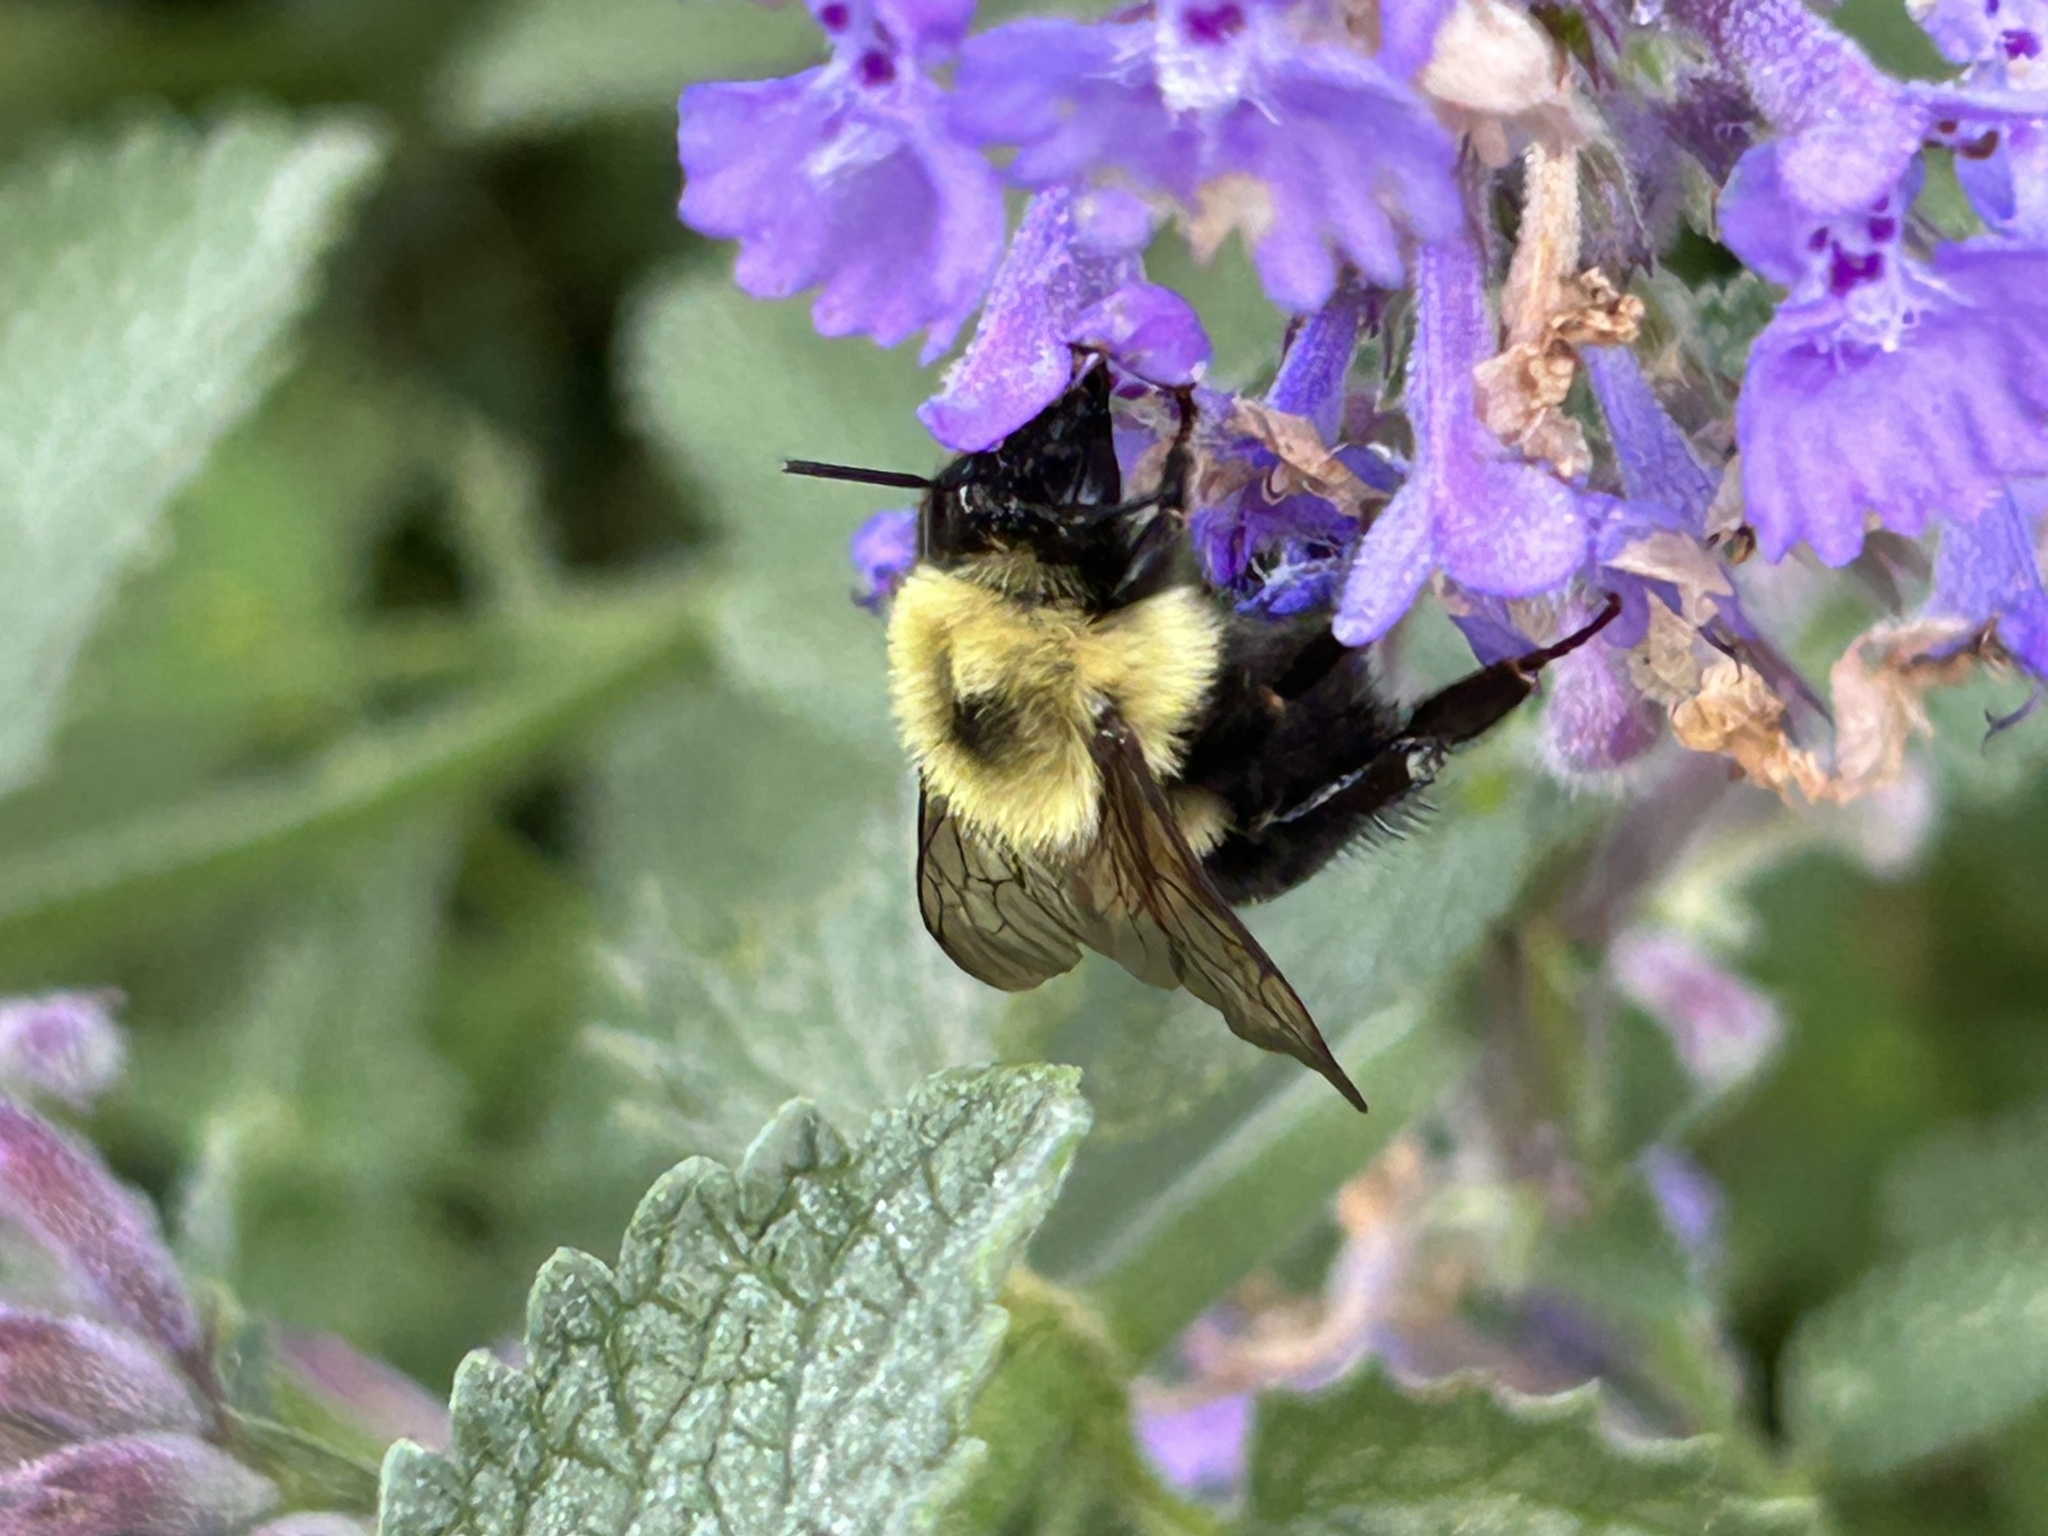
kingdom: Animalia
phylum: Arthropoda
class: Insecta
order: Hymenoptera
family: Apidae
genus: Bombus
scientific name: Bombus bimaculatus
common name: Two-spotted bumble bee
